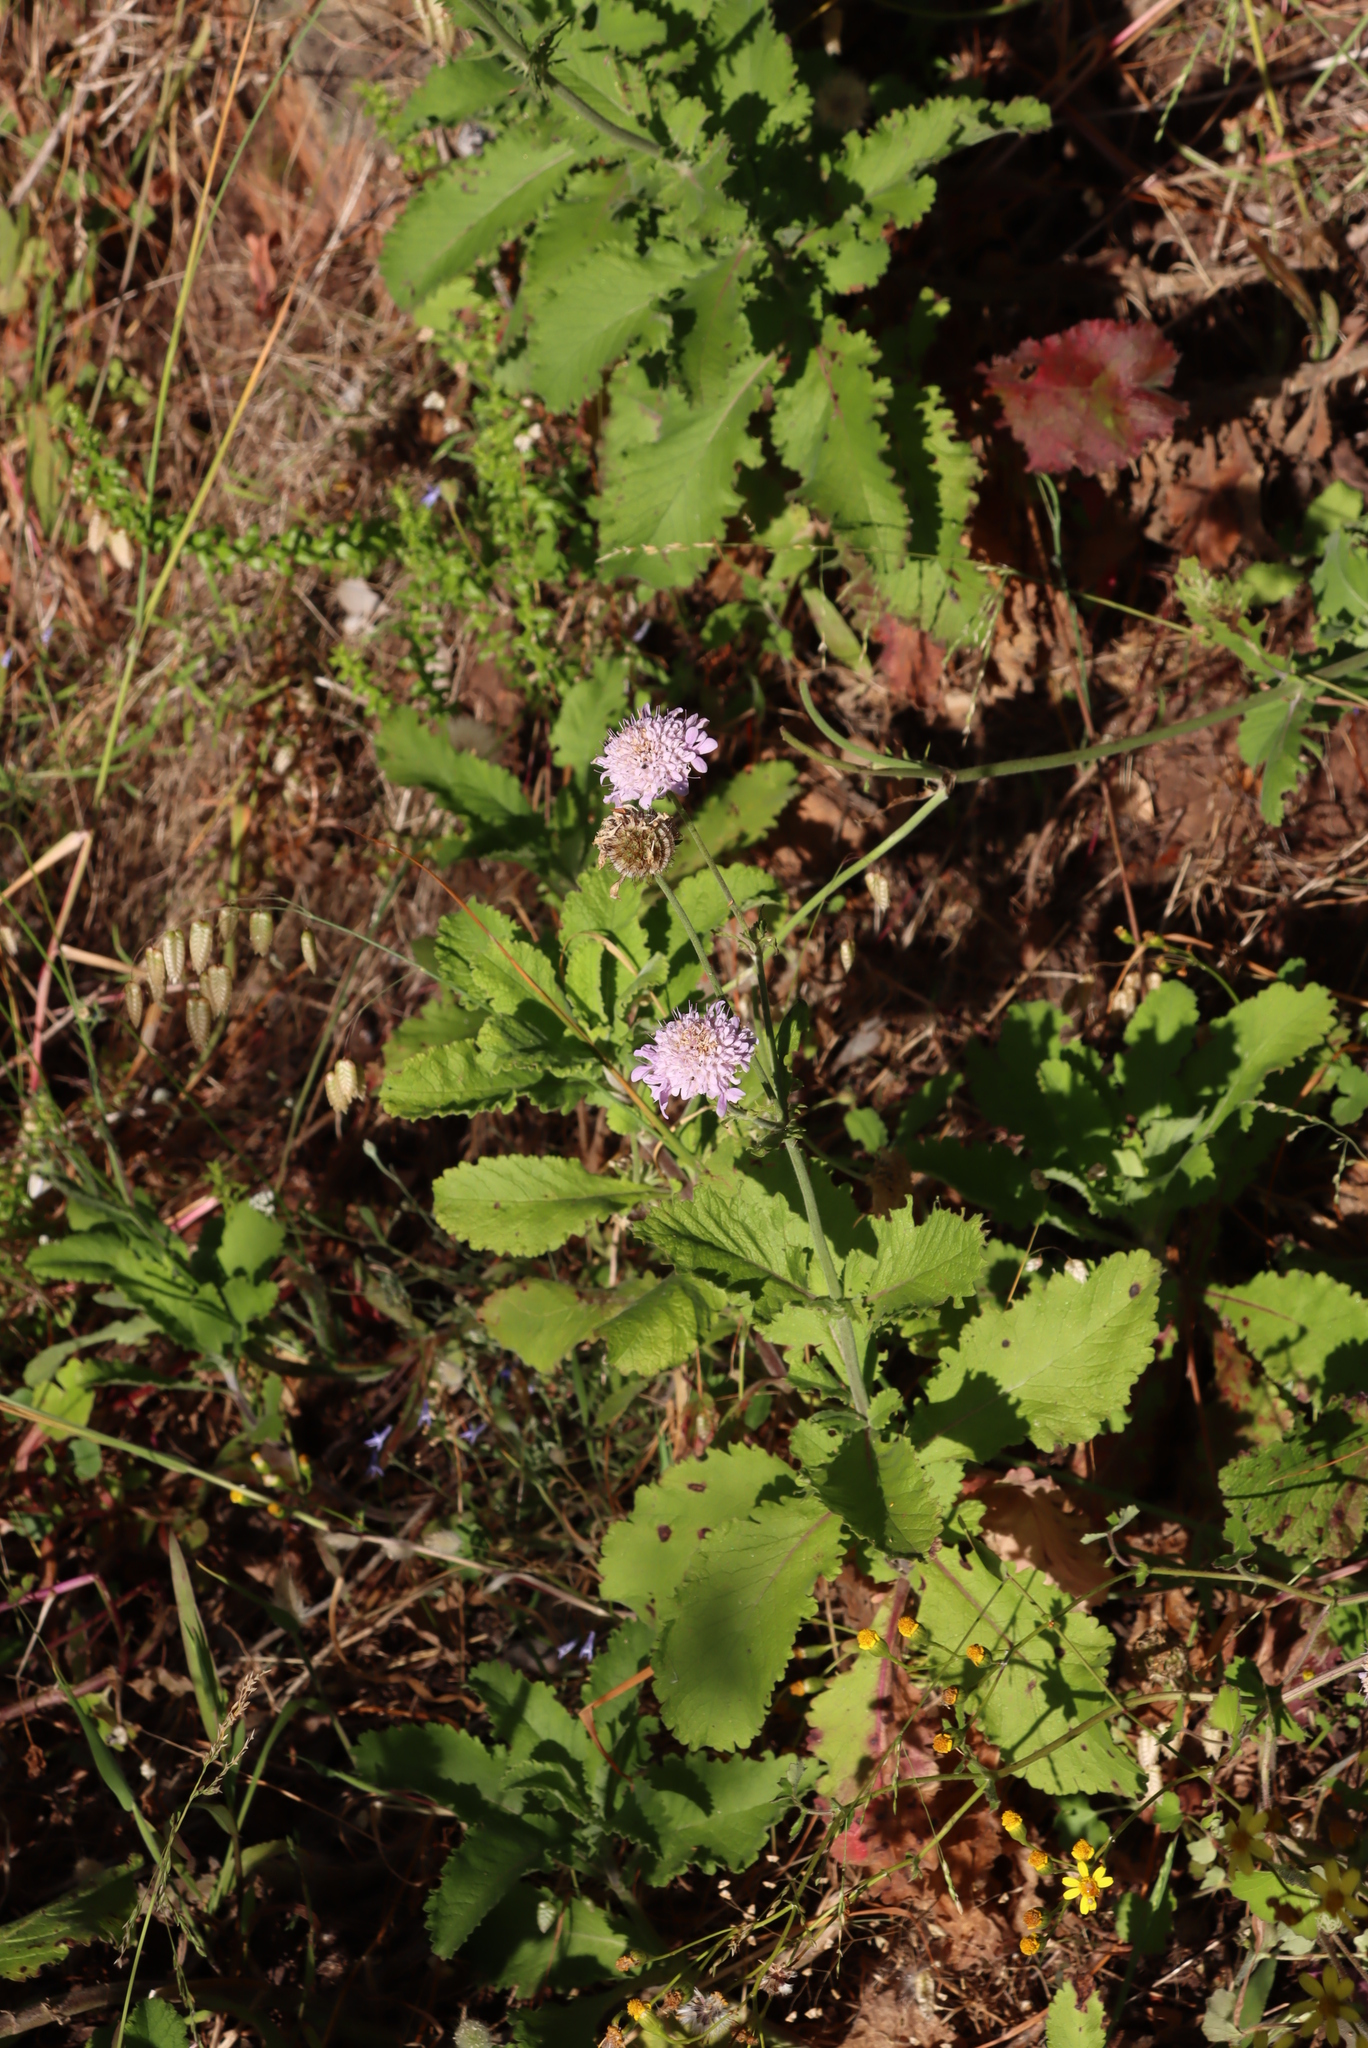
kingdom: Plantae
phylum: Tracheophyta
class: Magnoliopsida
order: Dipsacales
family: Caprifoliaceae
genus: Scabiosa
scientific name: Scabiosa africana
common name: Cape scabious
